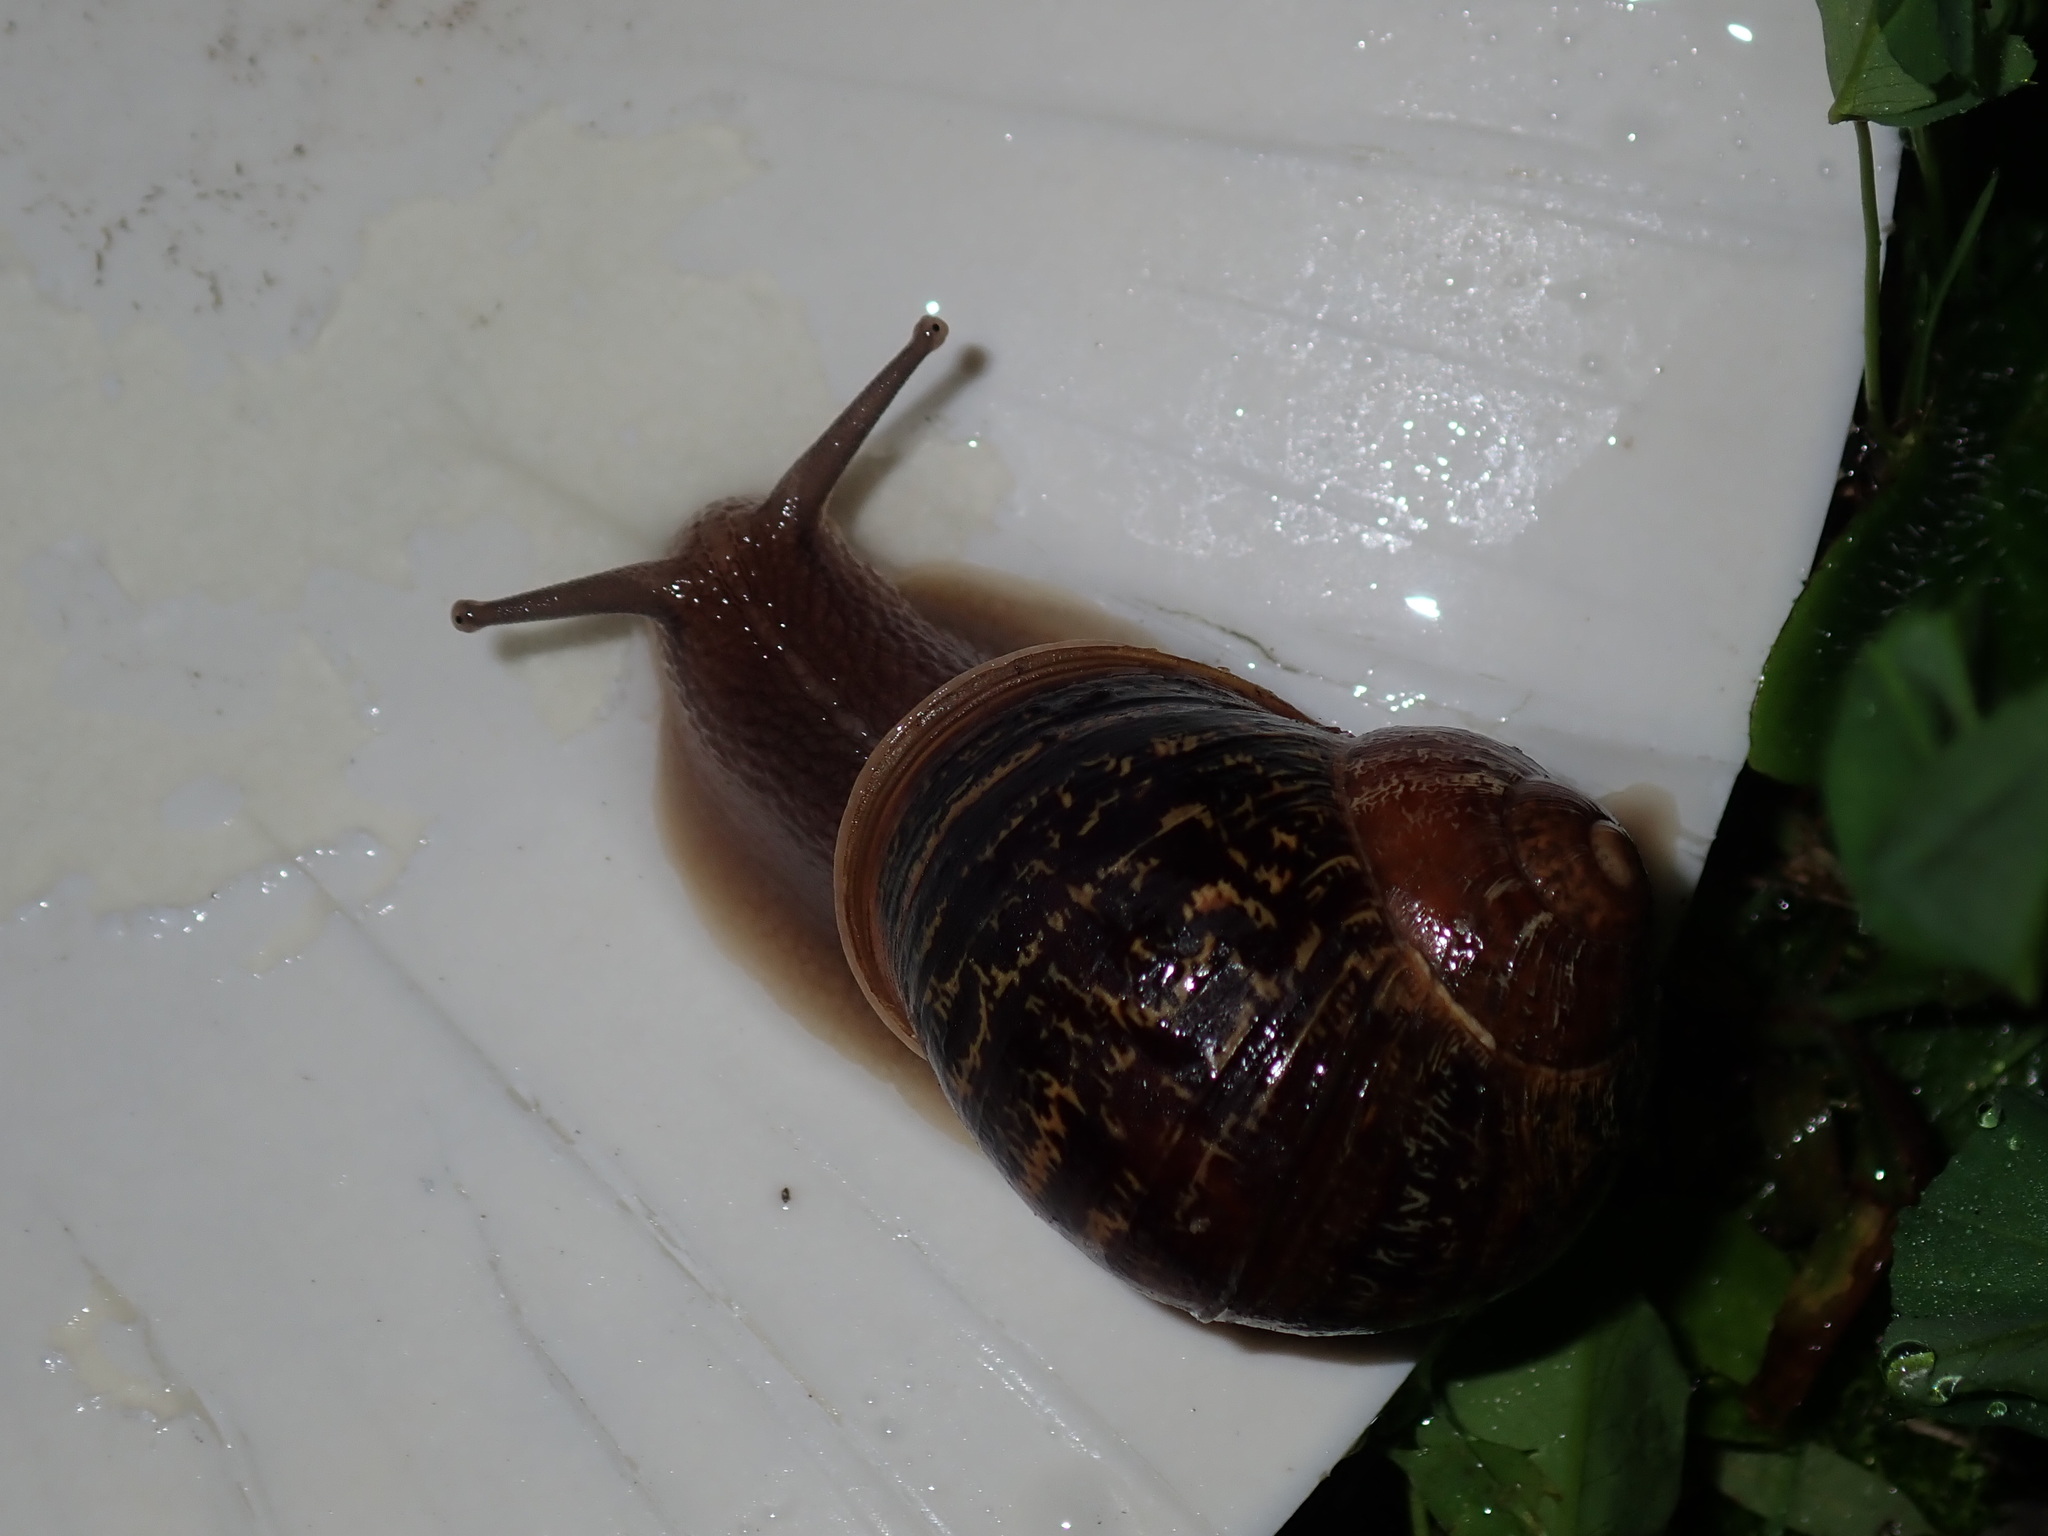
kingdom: Animalia
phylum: Mollusca
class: Gastropoda
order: Stylommatophora
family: Helicidae
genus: Cornu
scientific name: Cornu aspersum
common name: Brown garden snail
